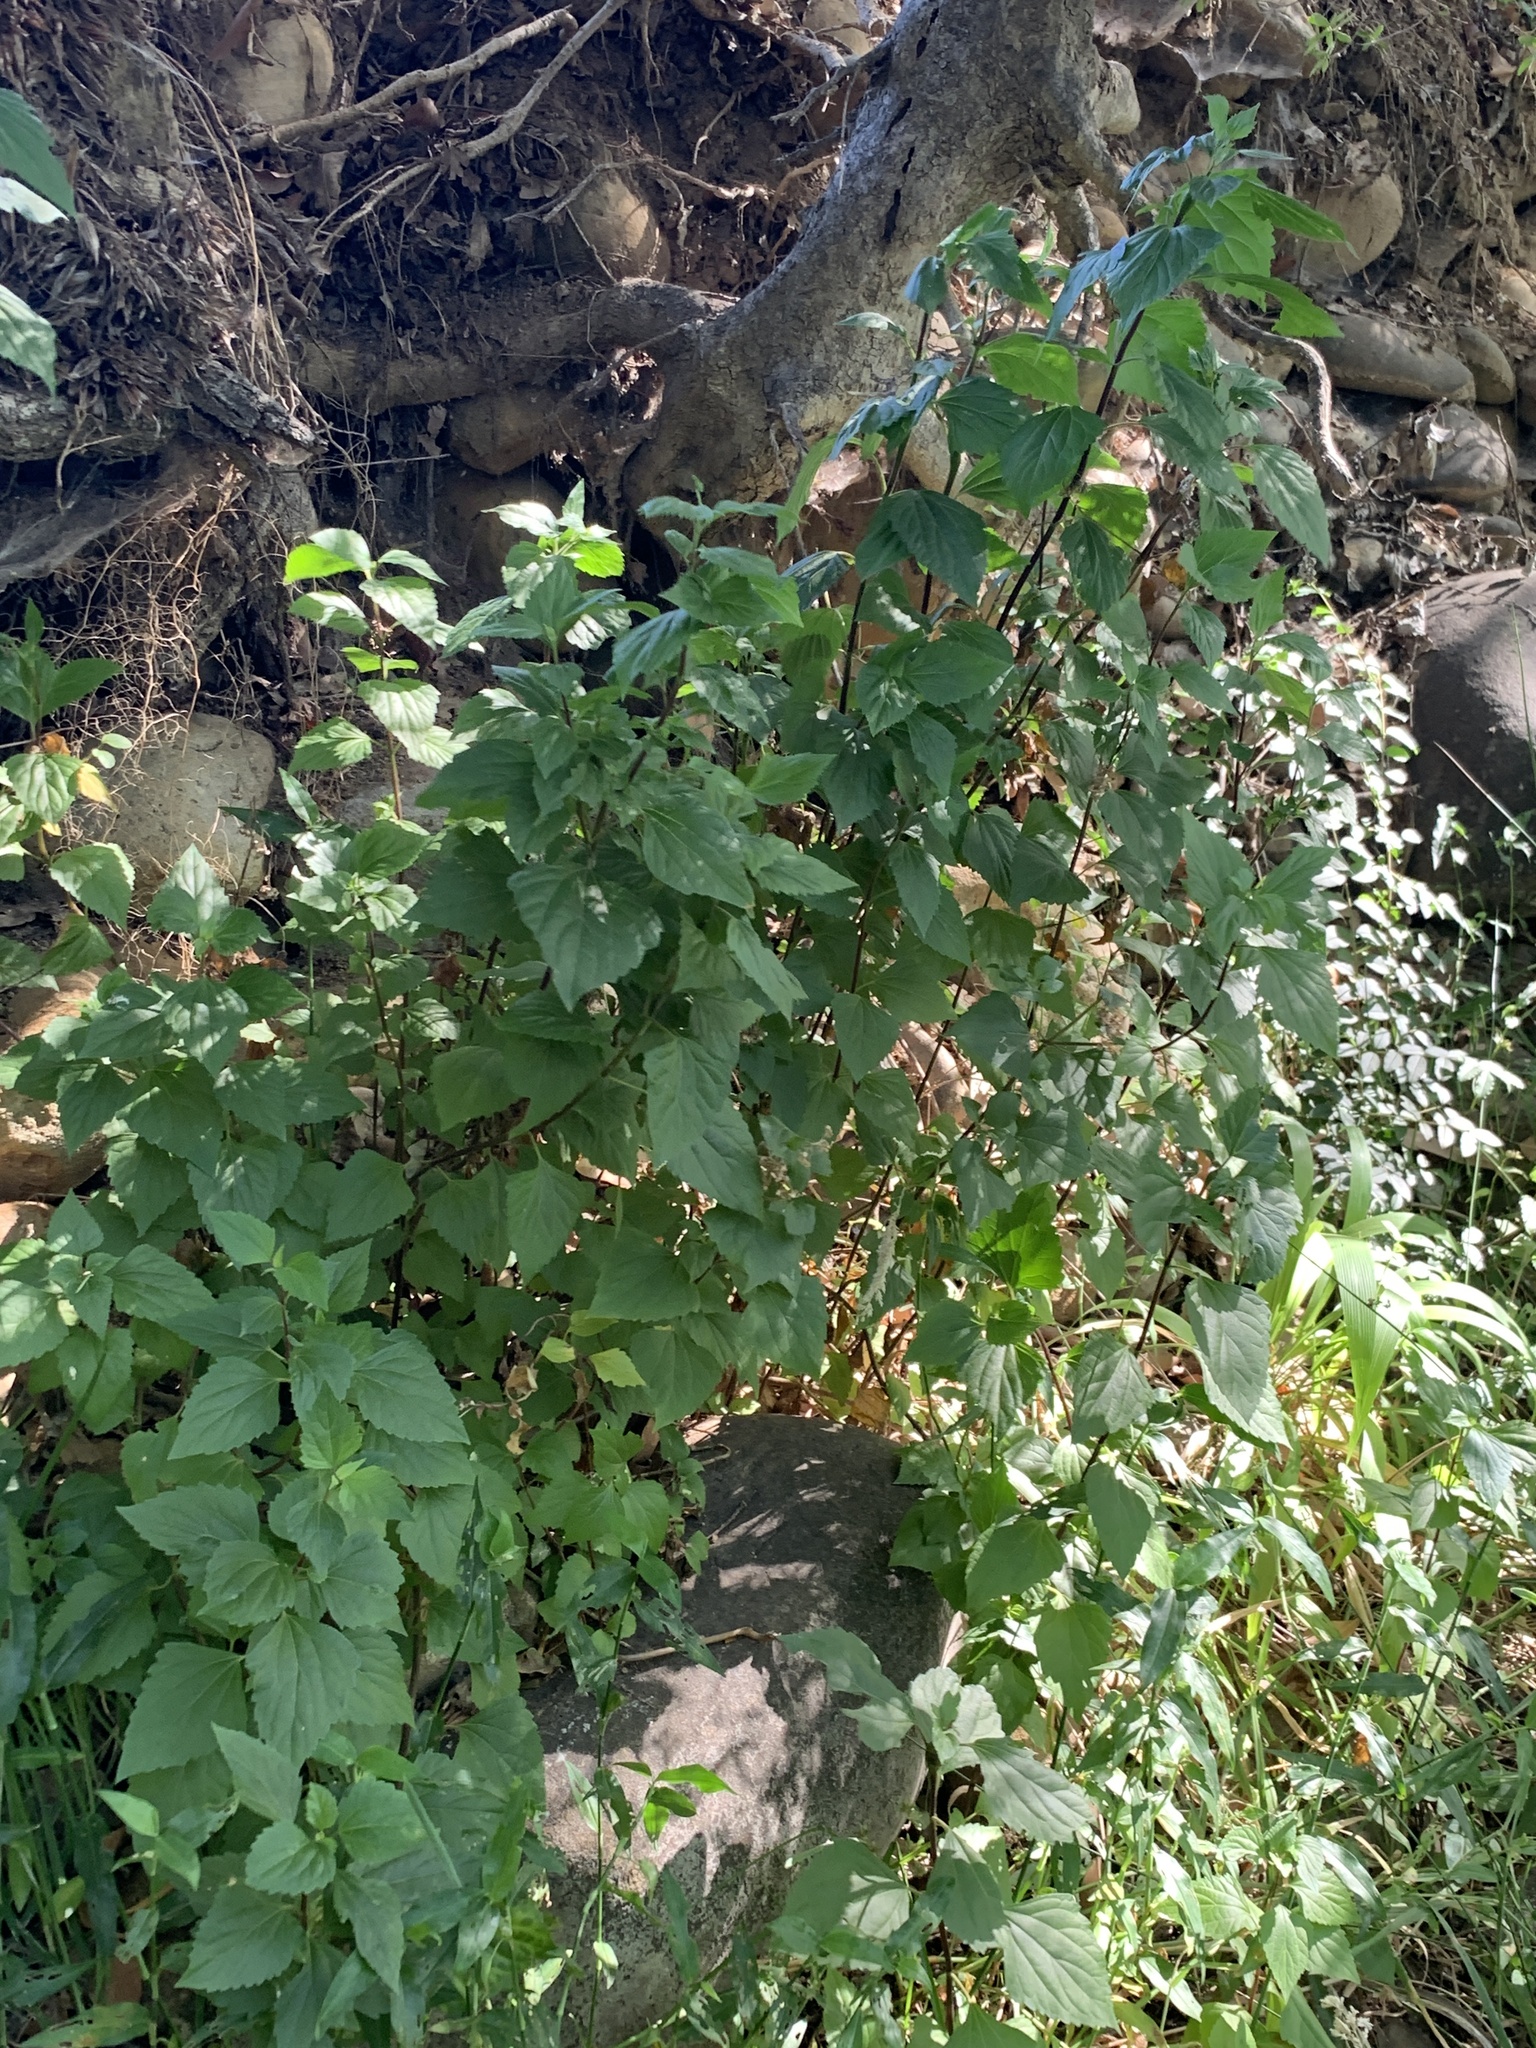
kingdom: Plantae
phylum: Tracheophyta
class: Magnoliopsida
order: Asterales
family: Asteraceae
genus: Ageratina
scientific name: Ageratina adenophora
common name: Sticky snakeroot
